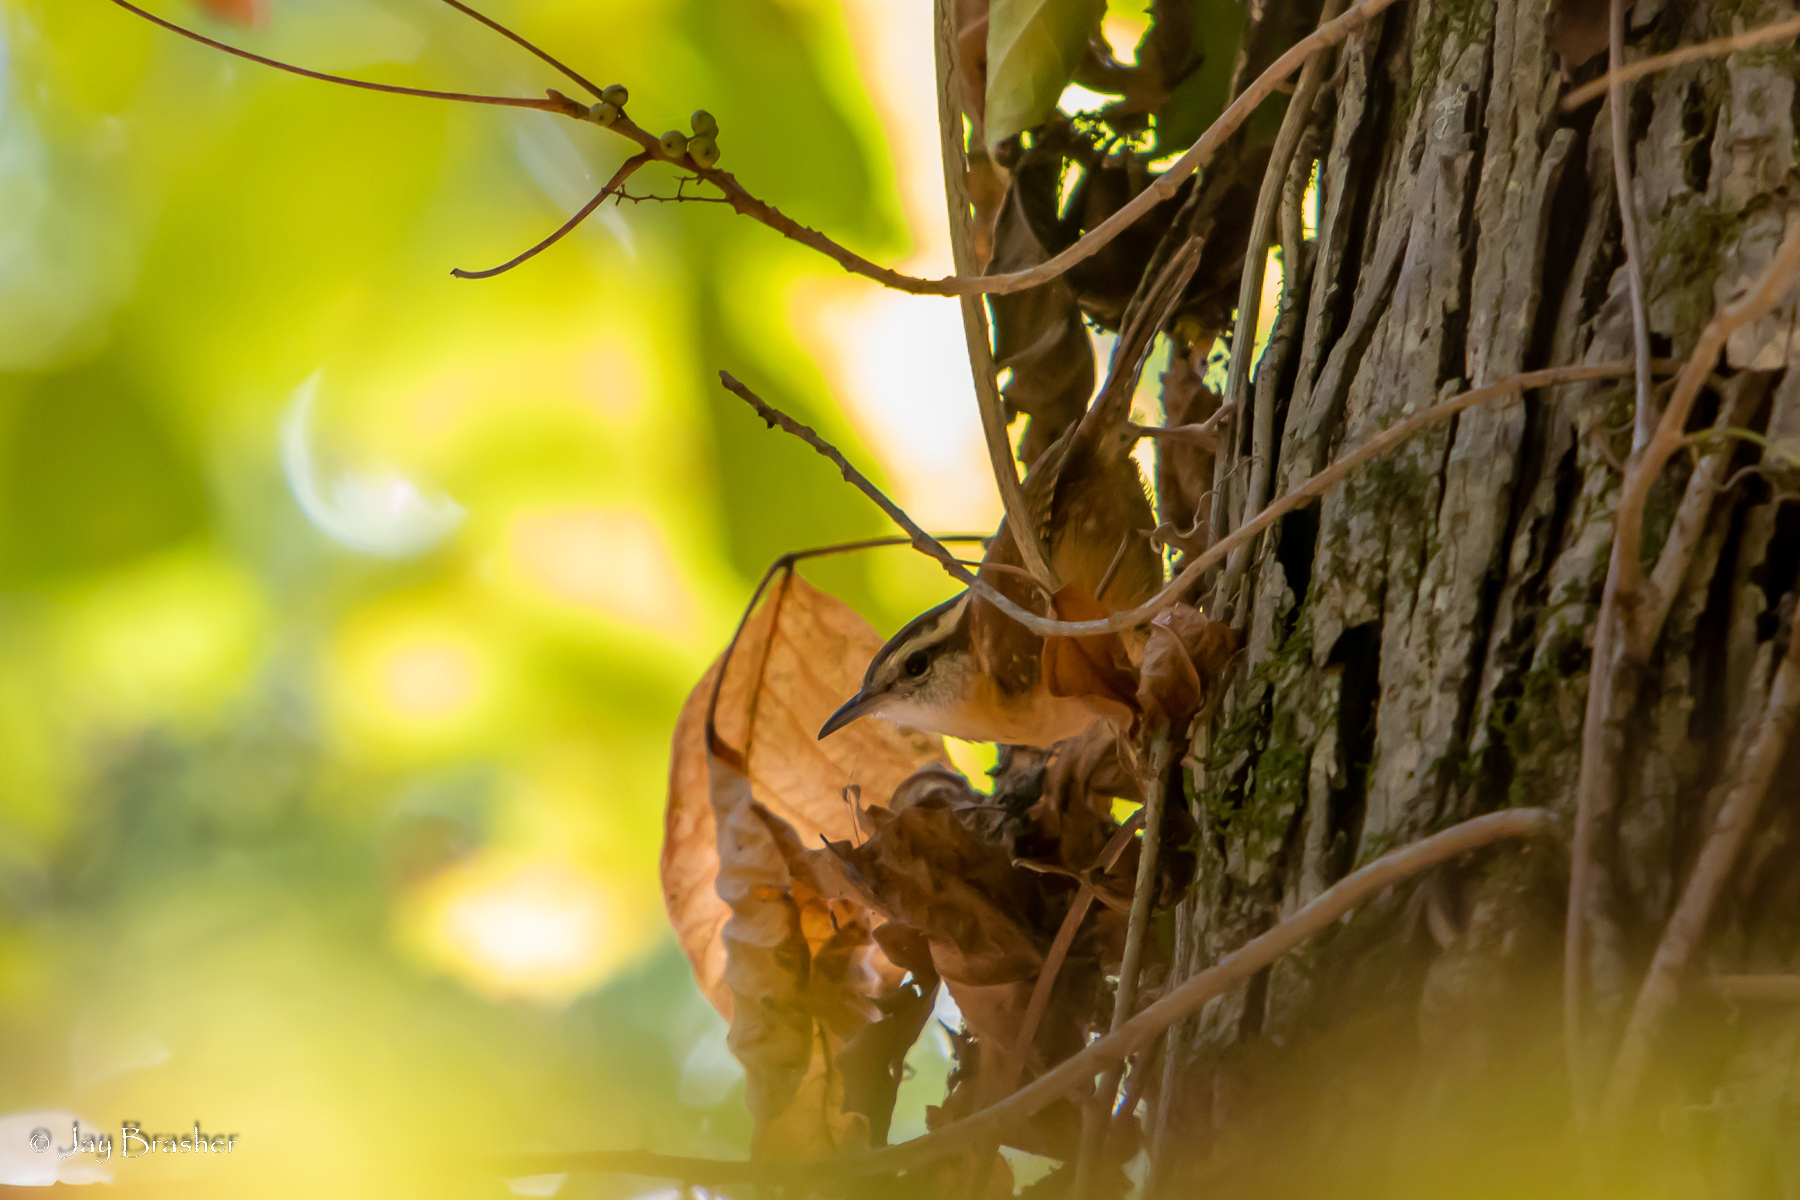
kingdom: Animalia
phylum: Chordata
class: Aves
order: Passeriformes
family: Troglodytidae
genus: Thryothorus
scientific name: Thryothorus ludovicianus
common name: Carolina wren
